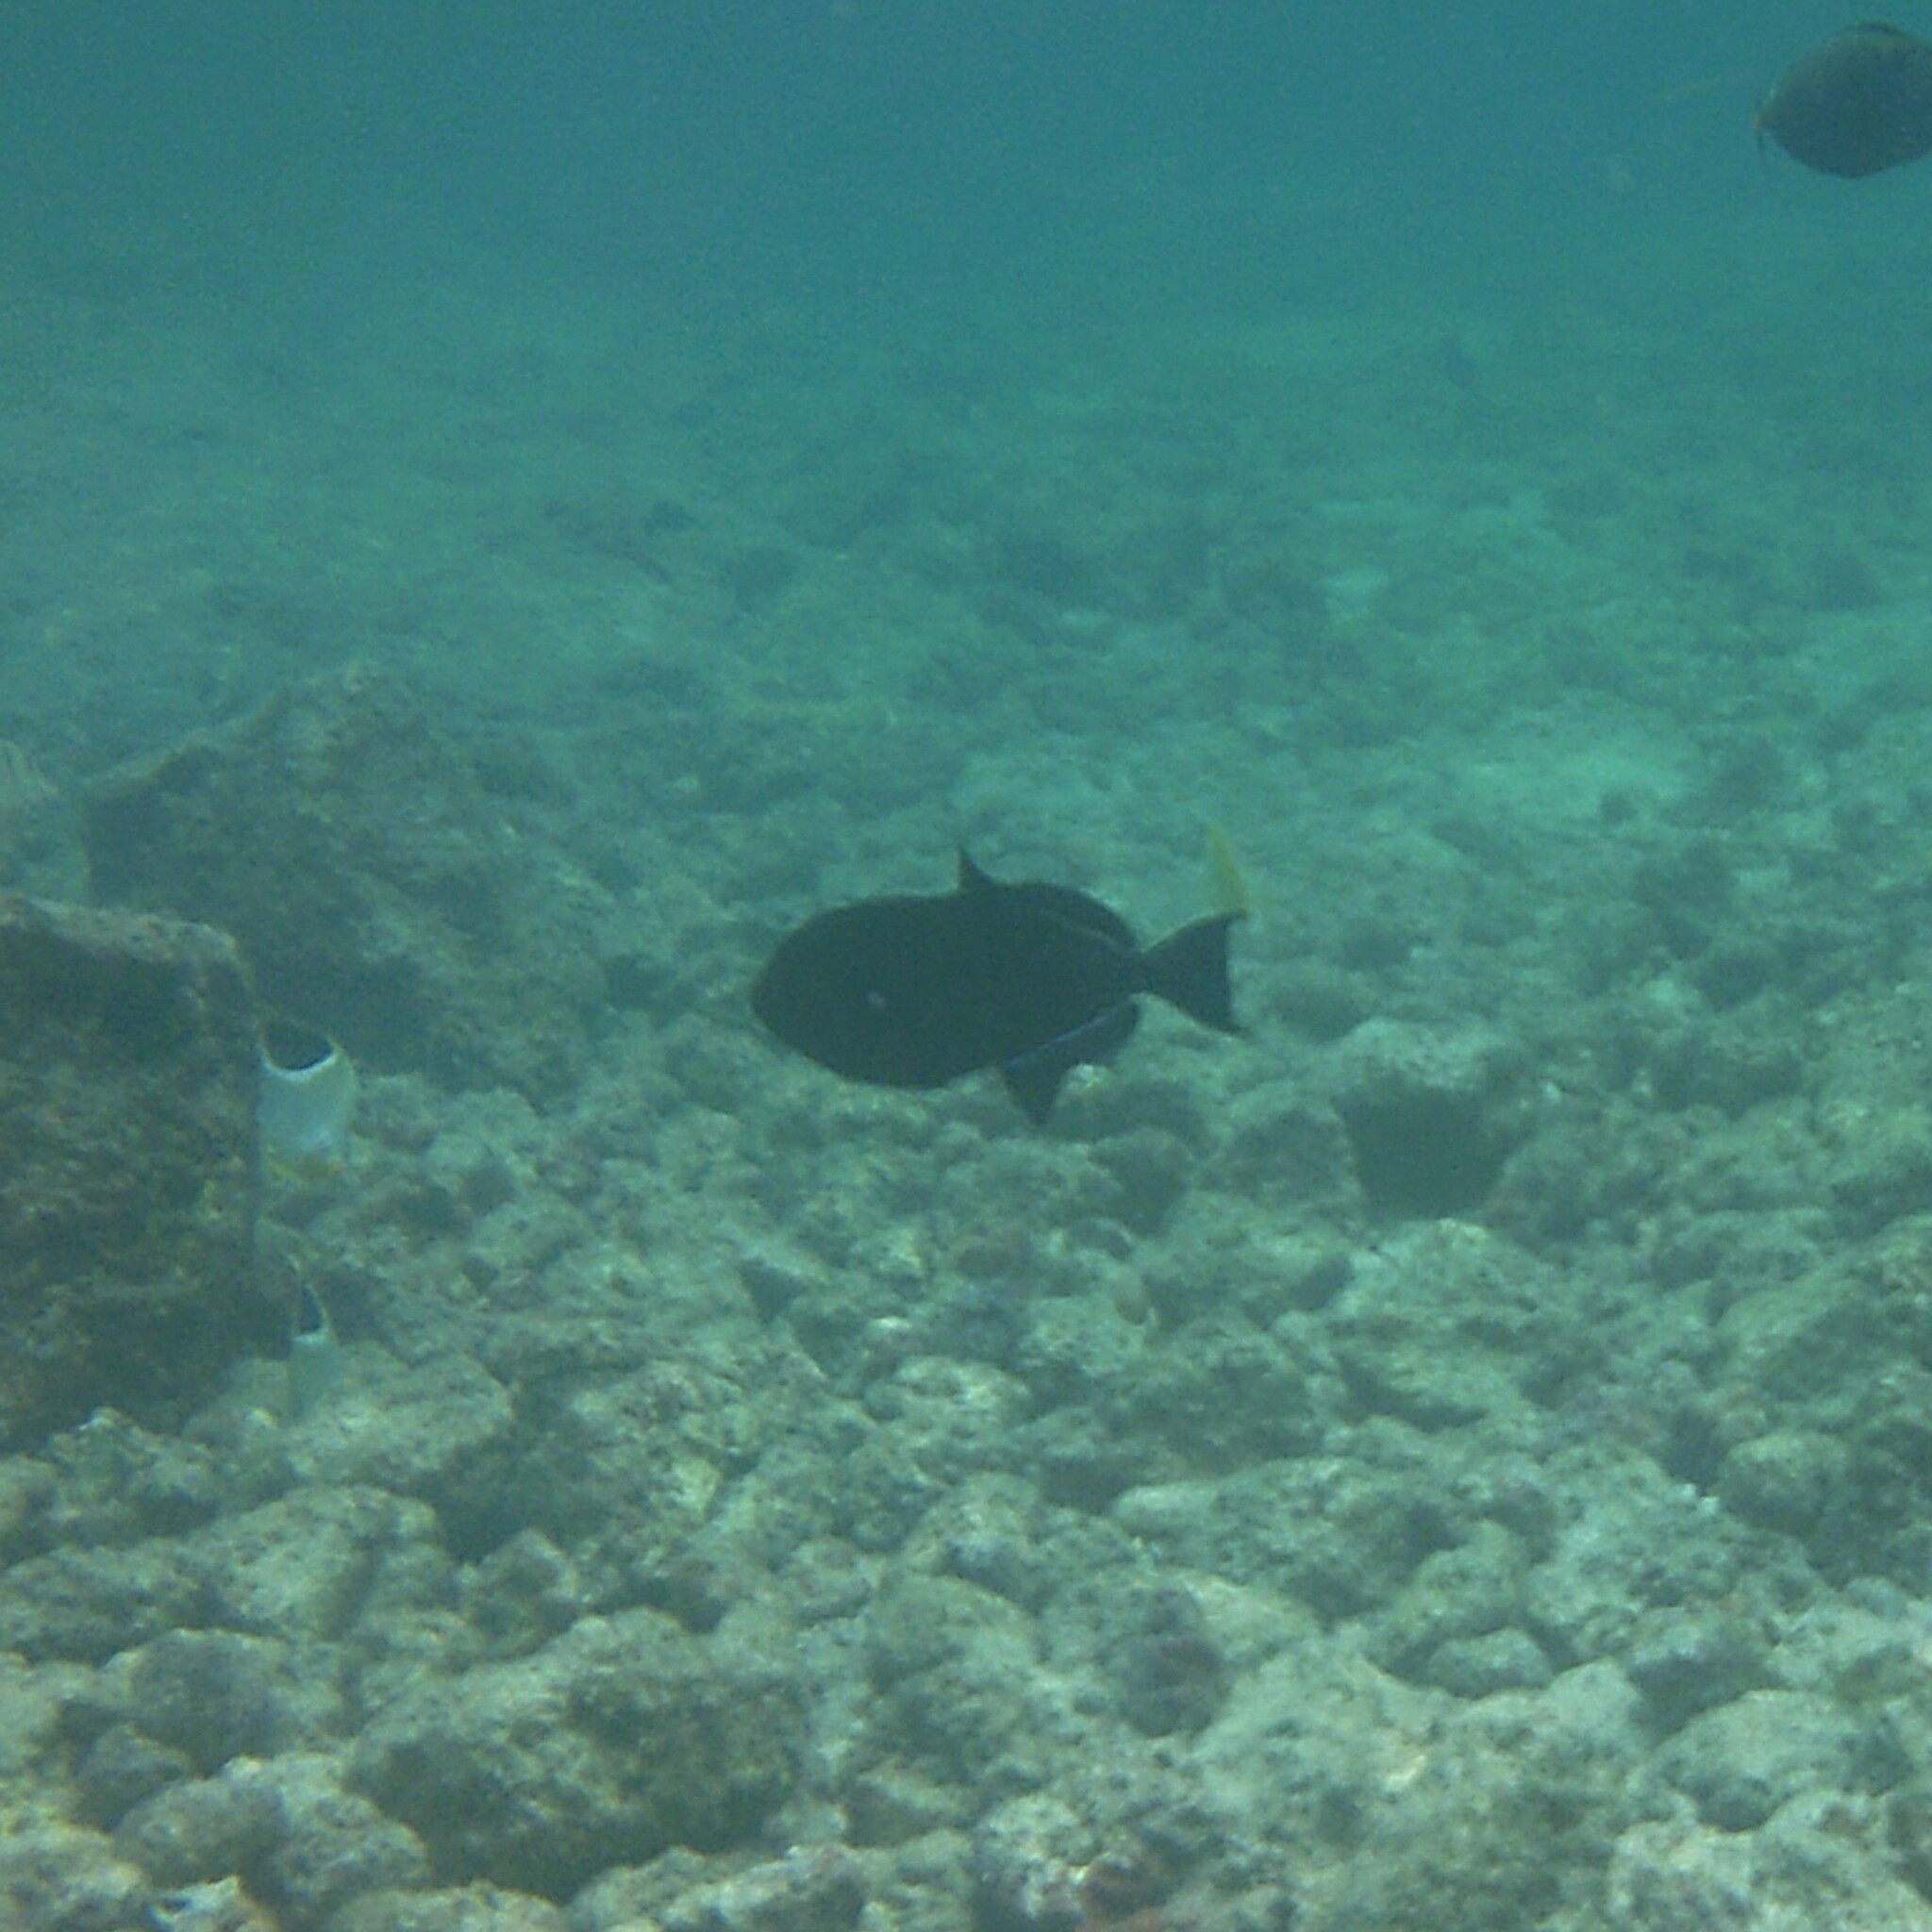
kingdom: Animalia
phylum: Chordata
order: Tetraodontiformes
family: Balistidae
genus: Melichthys
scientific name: Melichthys niger
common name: Black durgon
